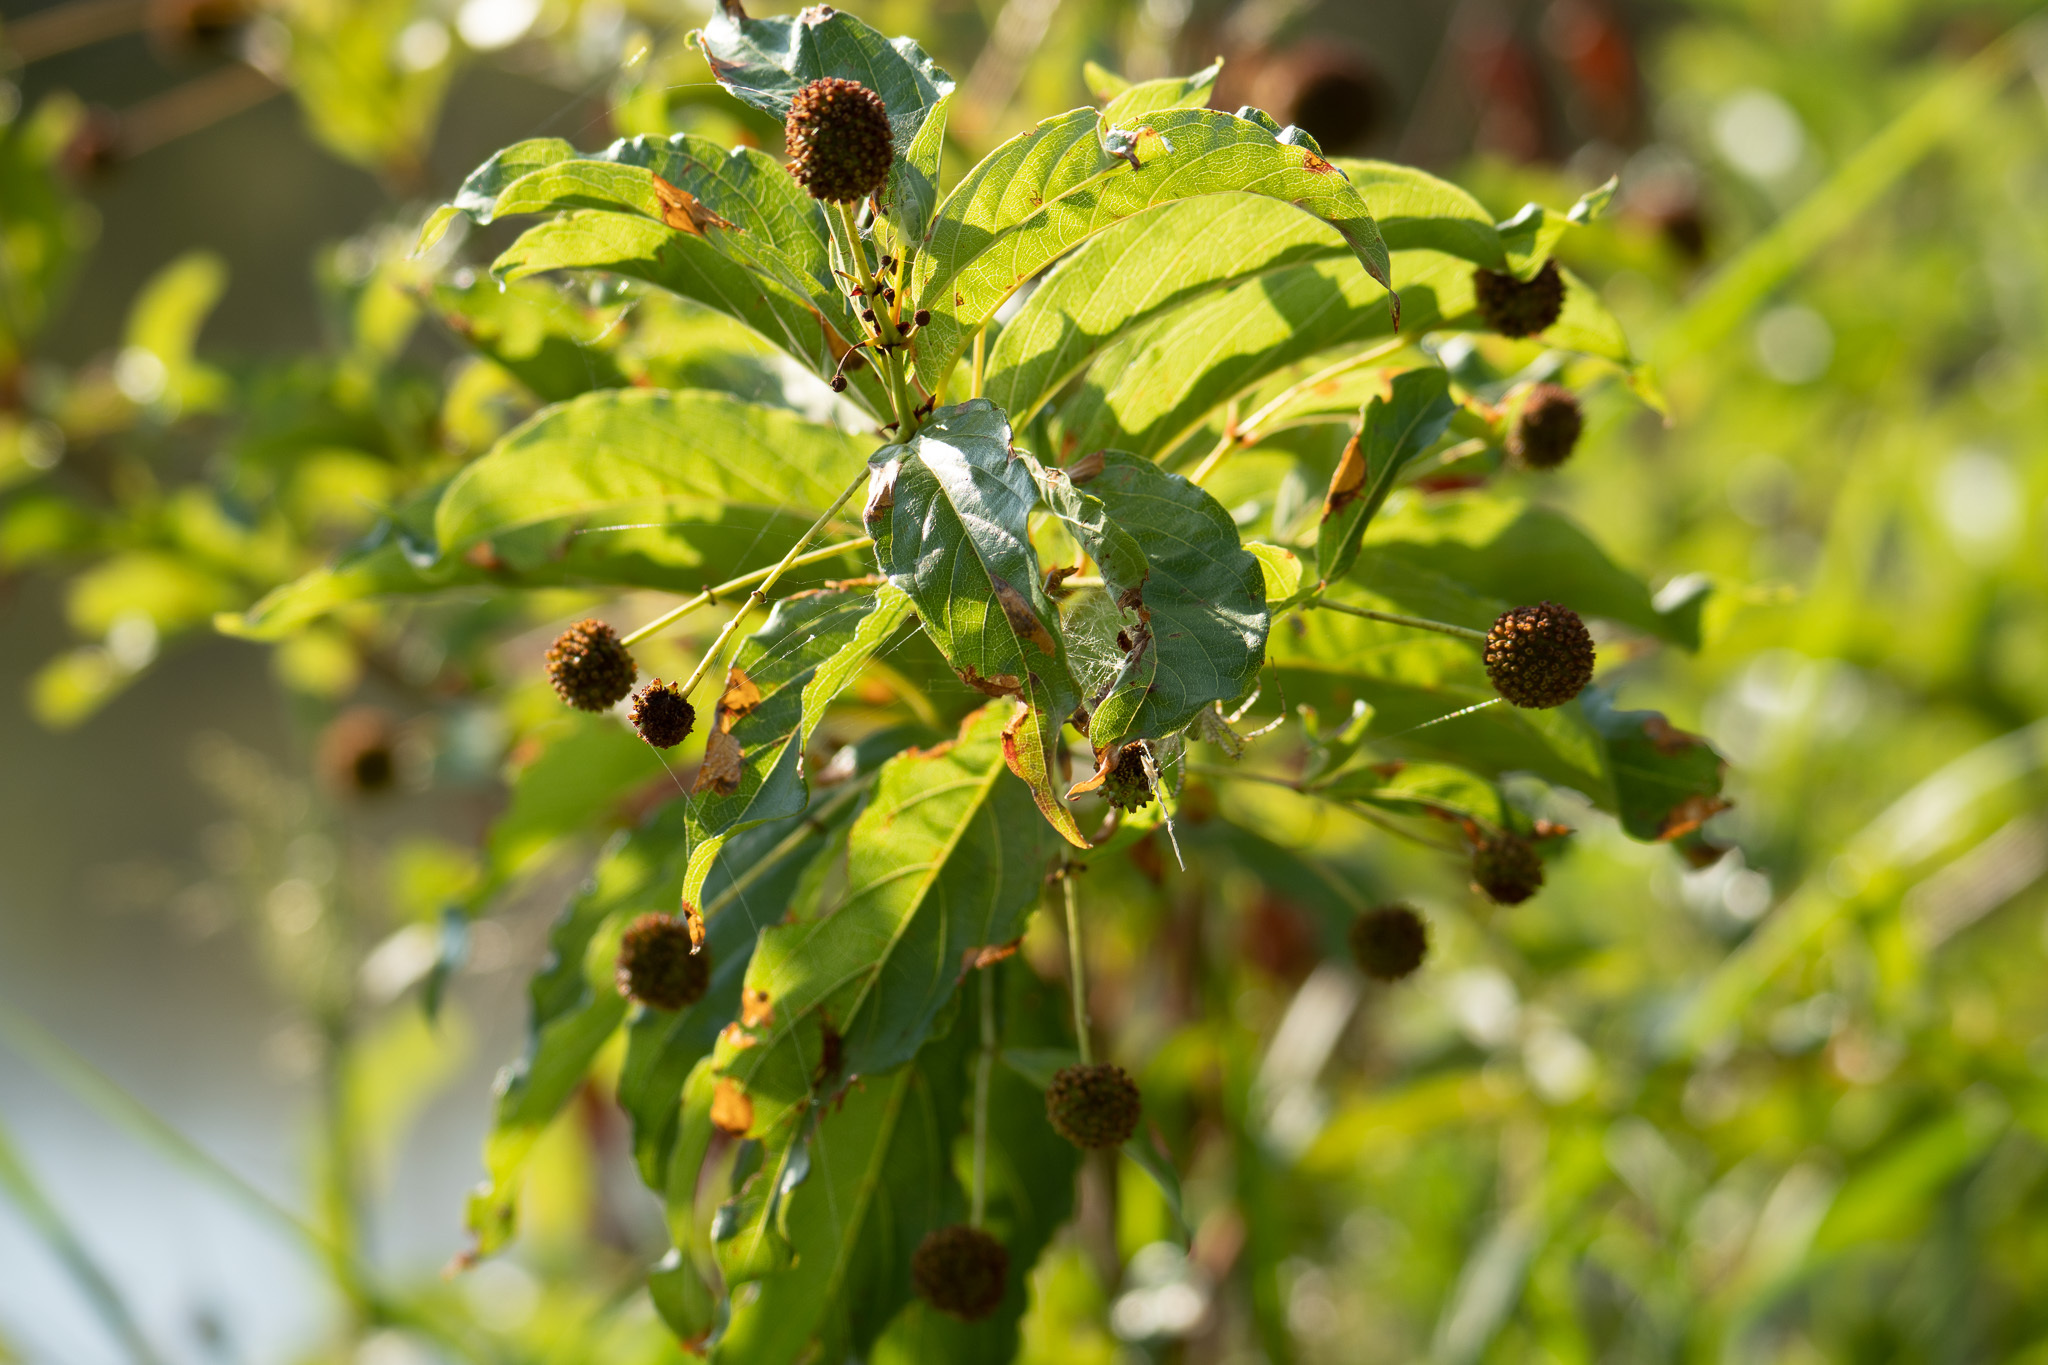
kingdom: Plantae
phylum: Tracheophyta
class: Magnoliopsida
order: Gentianales
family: Rubiaceae
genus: Cephalanthus
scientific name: Cephalanthus occidentalis
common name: Button-willow
